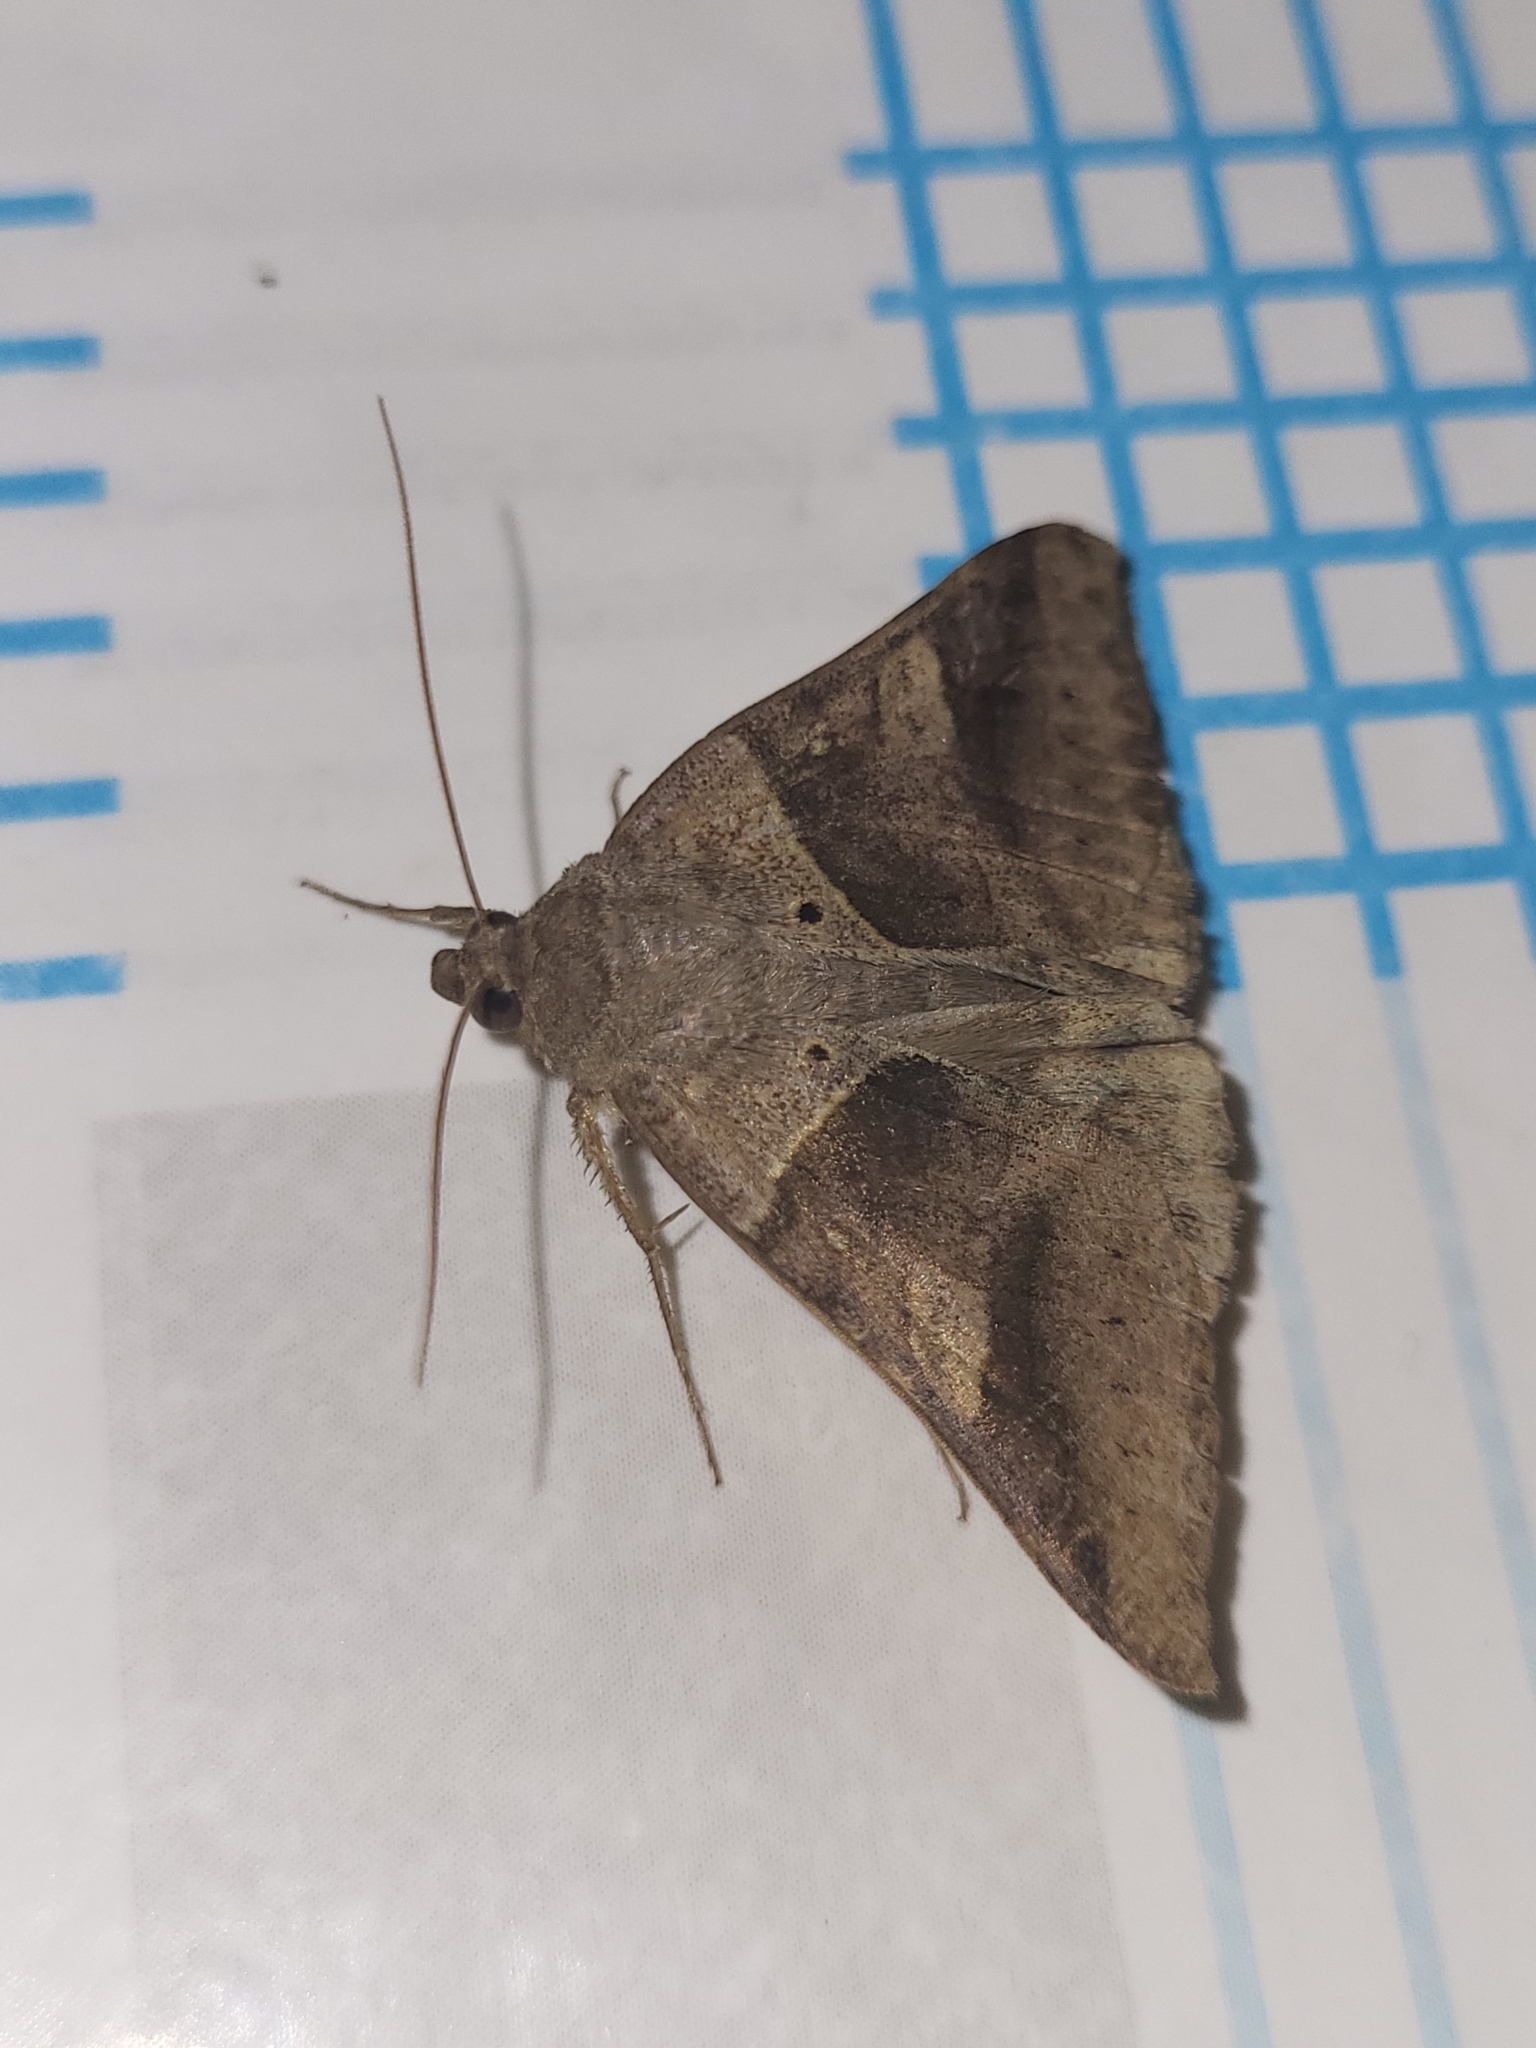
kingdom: Animalia
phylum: Arthropoda
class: Insecta
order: Lepidoptera
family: Erebidae
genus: Mocis
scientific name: Mocis mayeri
